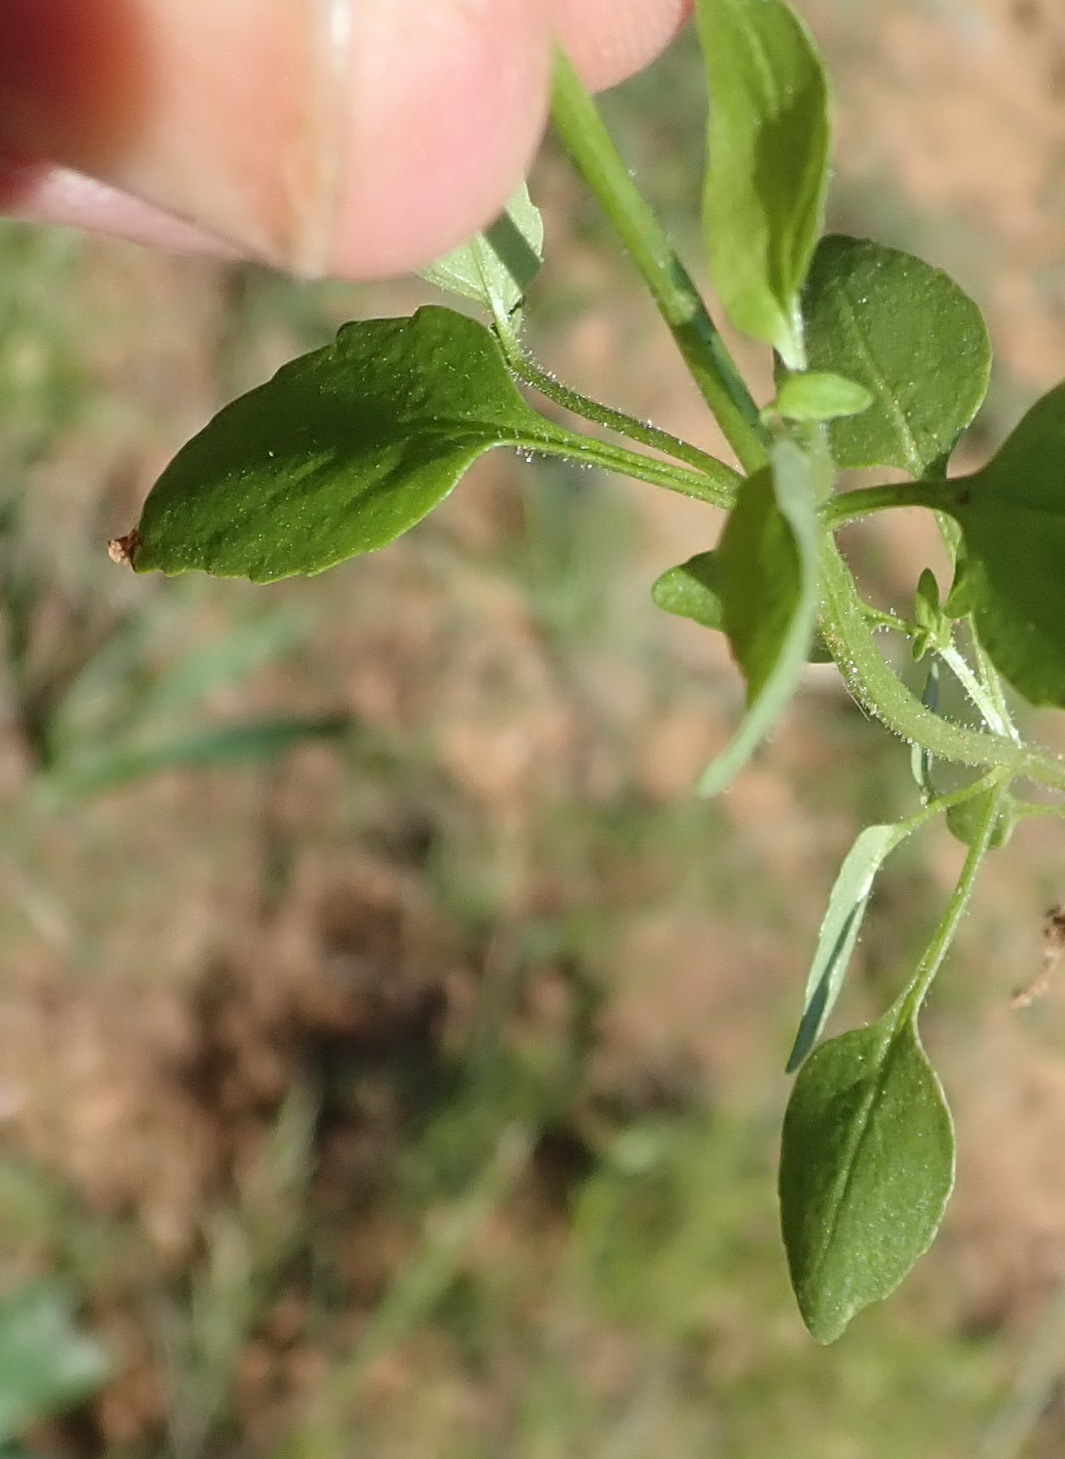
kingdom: Plantae
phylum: Tracheophyta
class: Magnoliopsida
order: Lamiales
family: Scrophulariaceae
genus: Nemesia
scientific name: Nemesia ligulata
